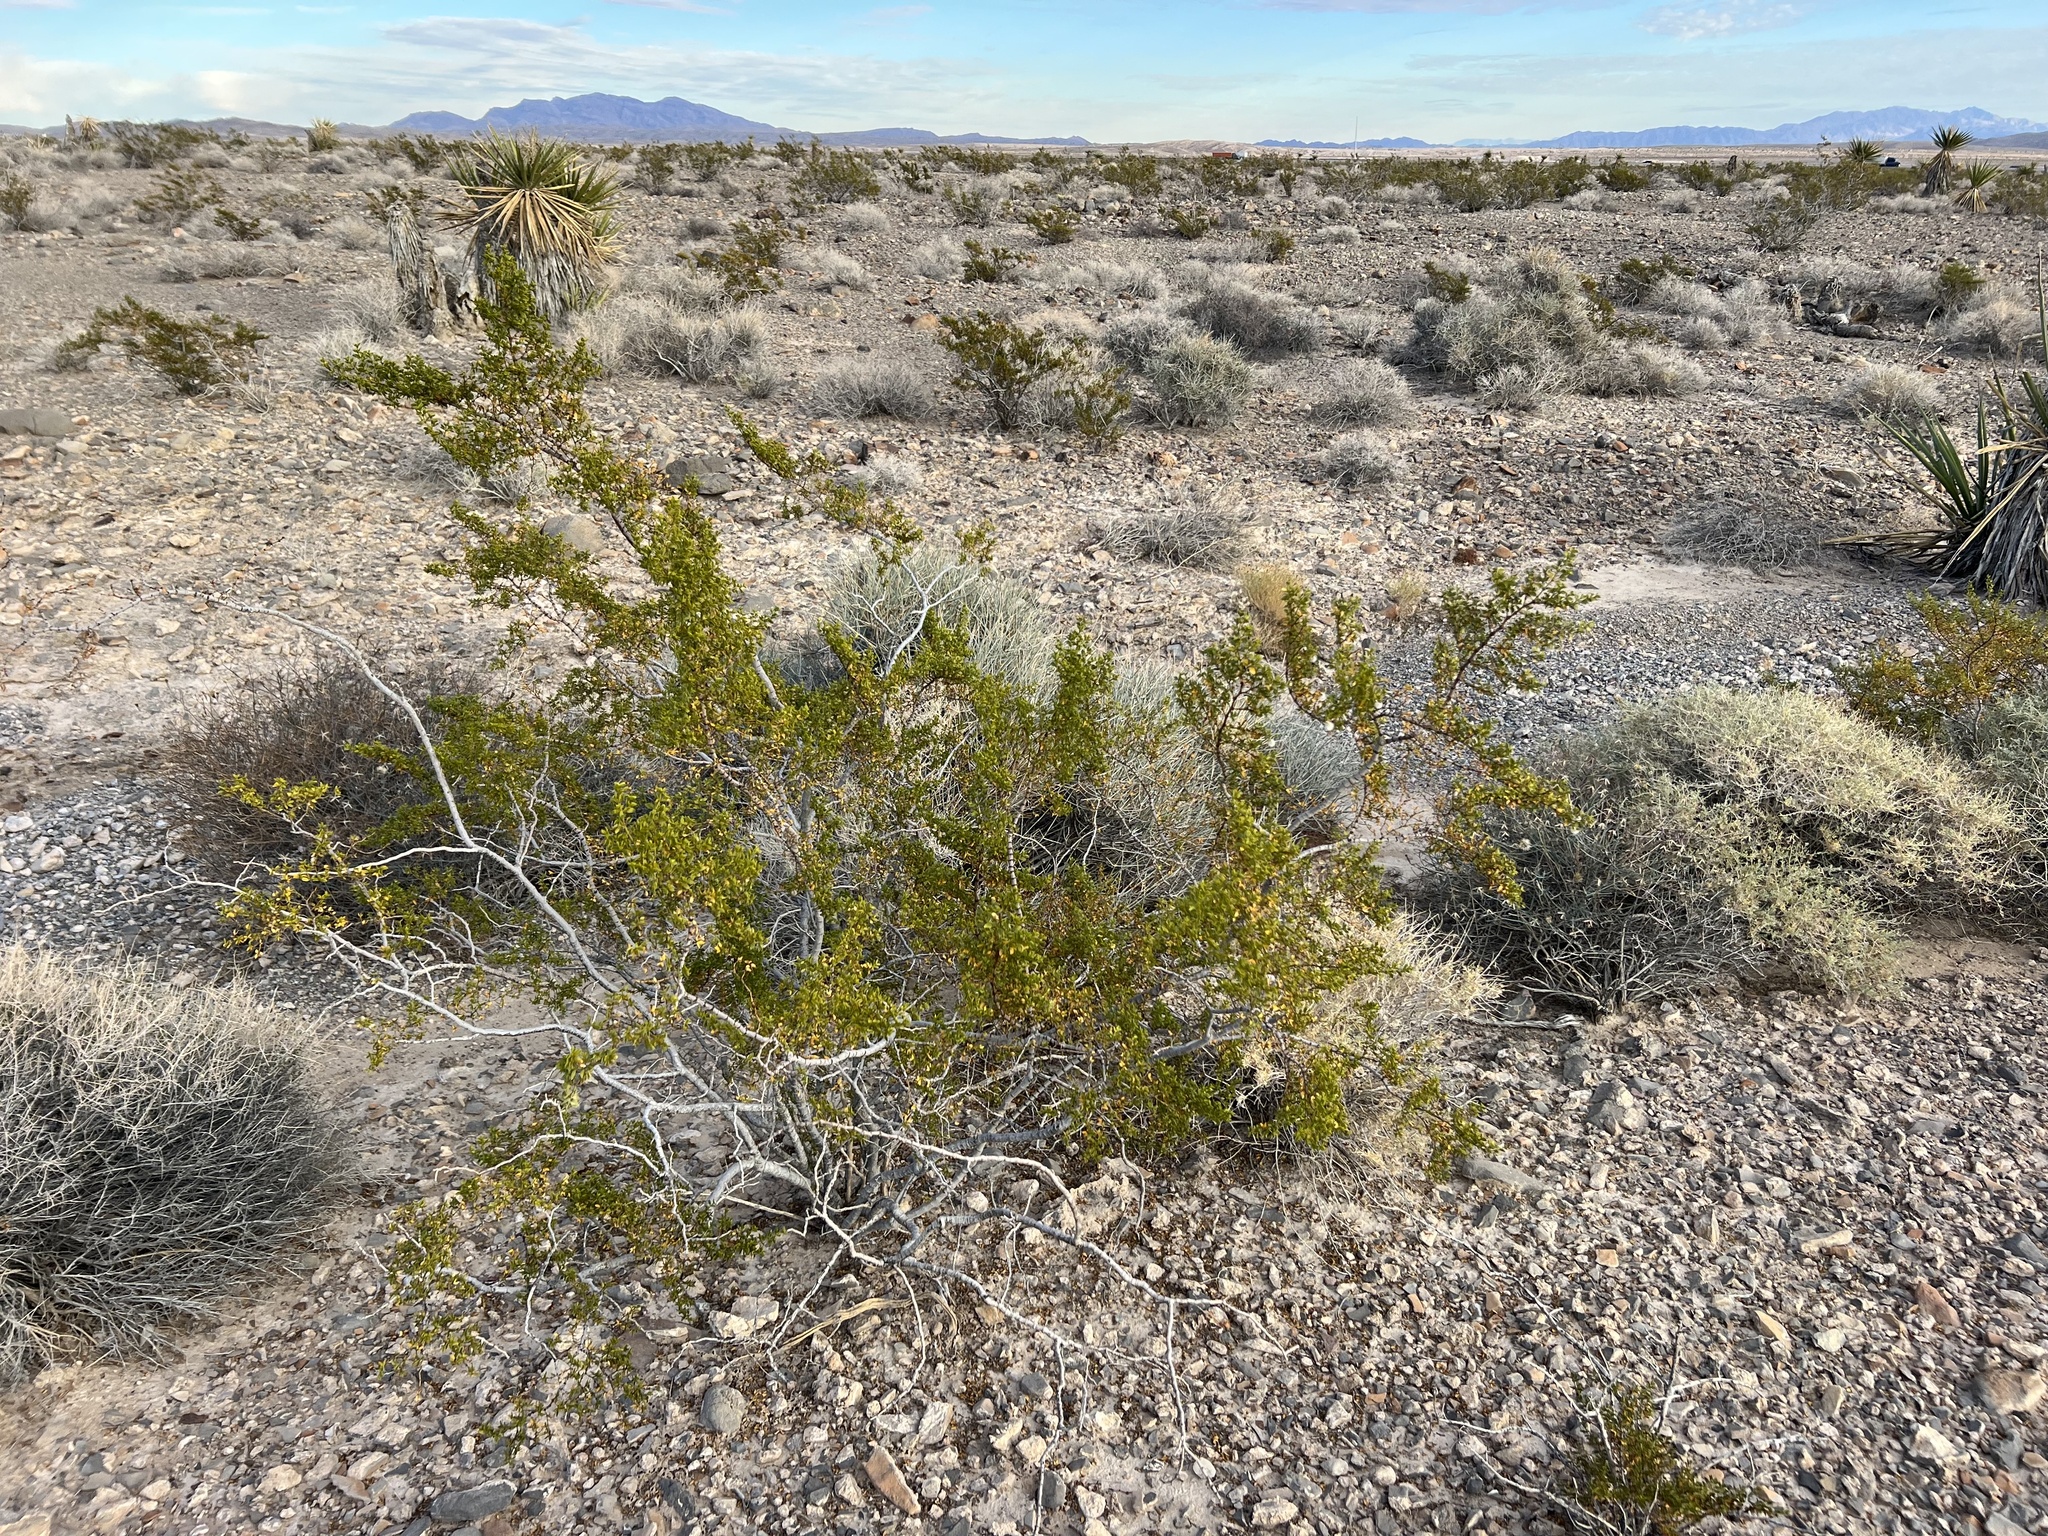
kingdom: Plantae
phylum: Tracheophyta
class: Magnoliopsida
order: Zygophyllales
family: Zygophyllaceae
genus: Larrea
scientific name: Larrea tridentata
